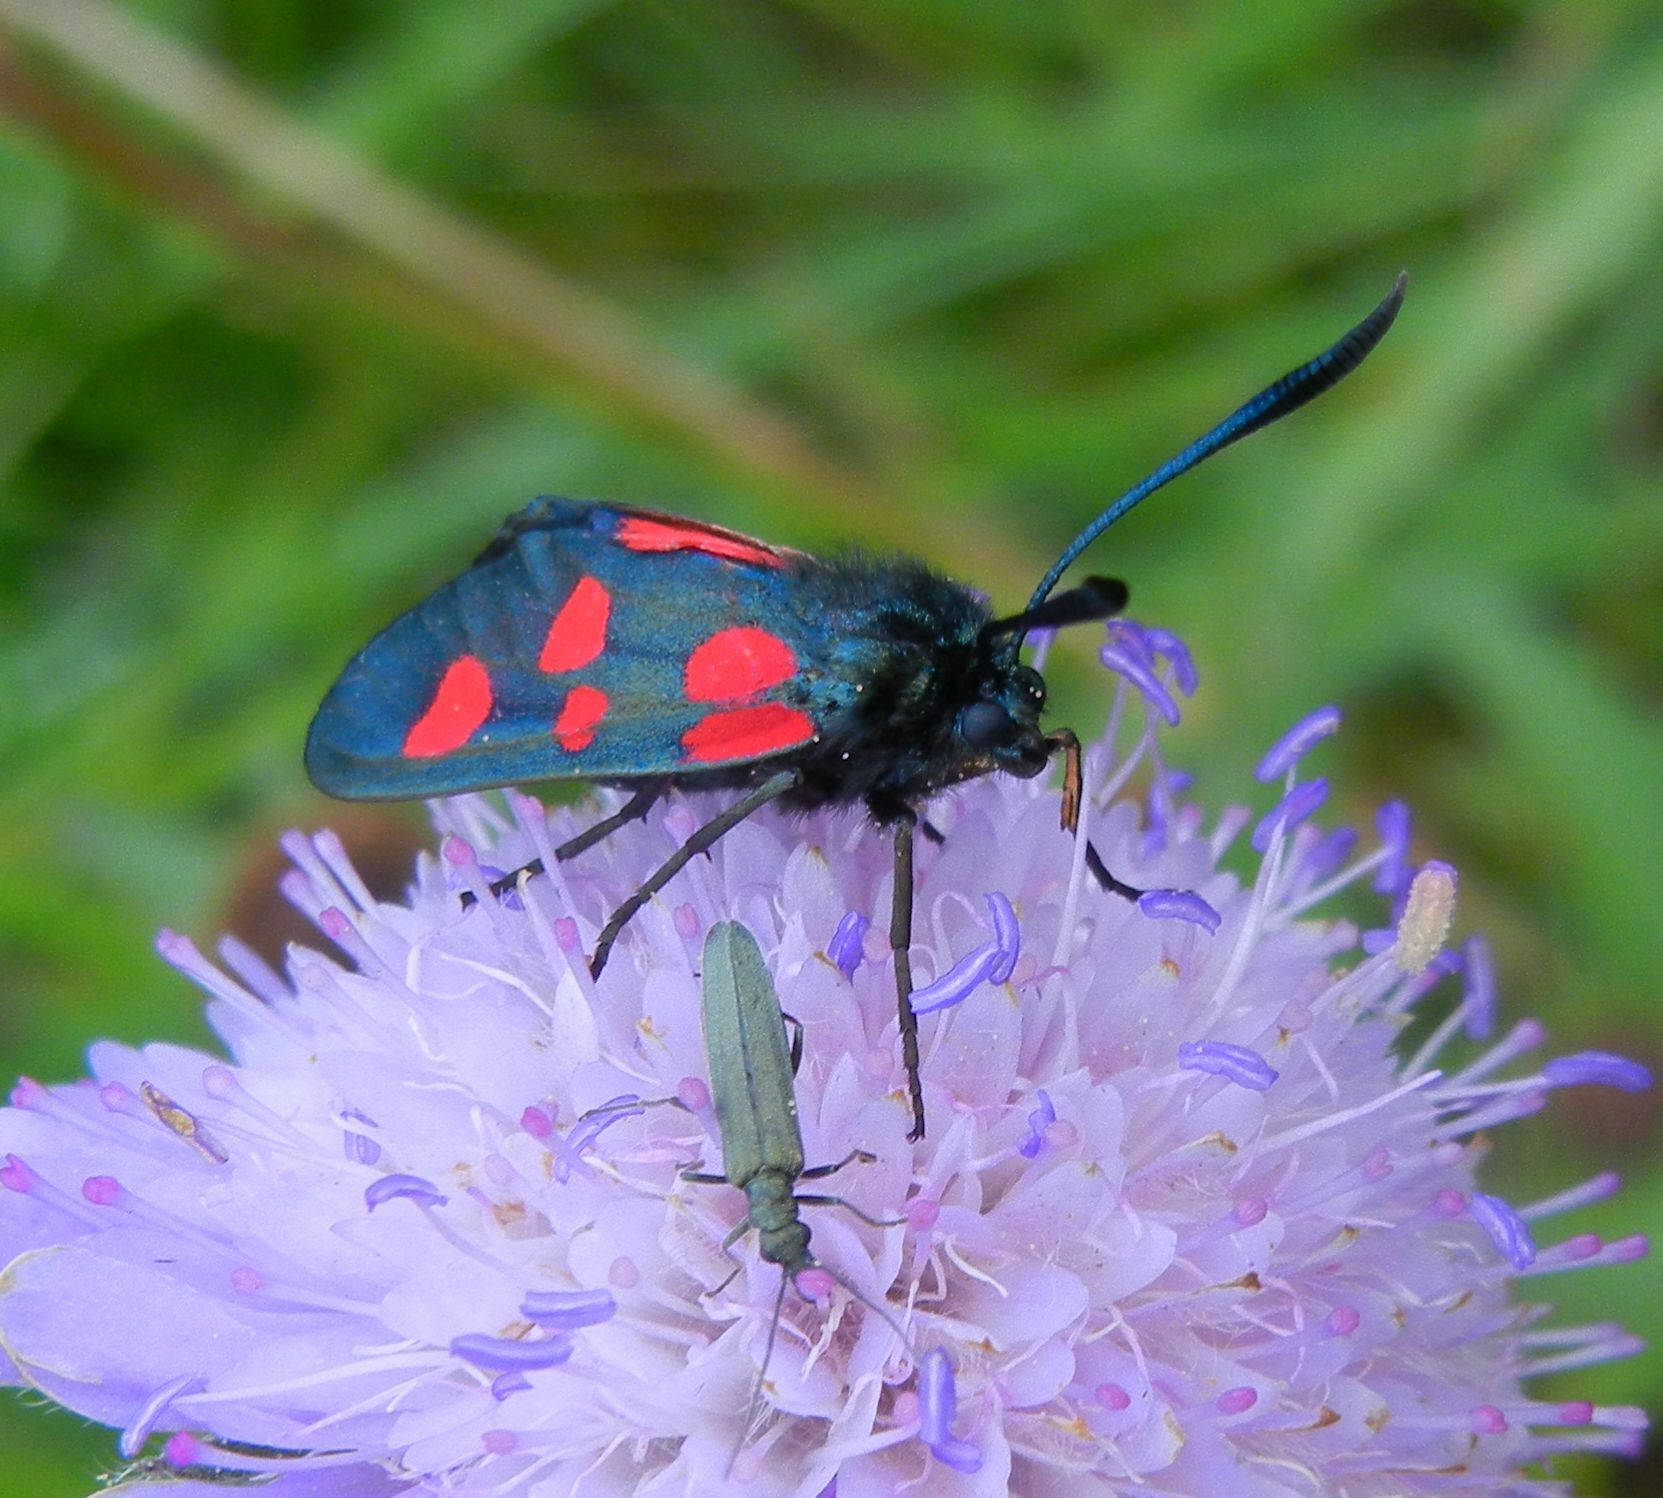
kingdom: Animalia
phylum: Arthropoda
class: Insecta
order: Lepidoptera
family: Zygaenidae
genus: Zygaena
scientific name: Zygaena lonicerae
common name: Narrow-bordered five-spot burnet
